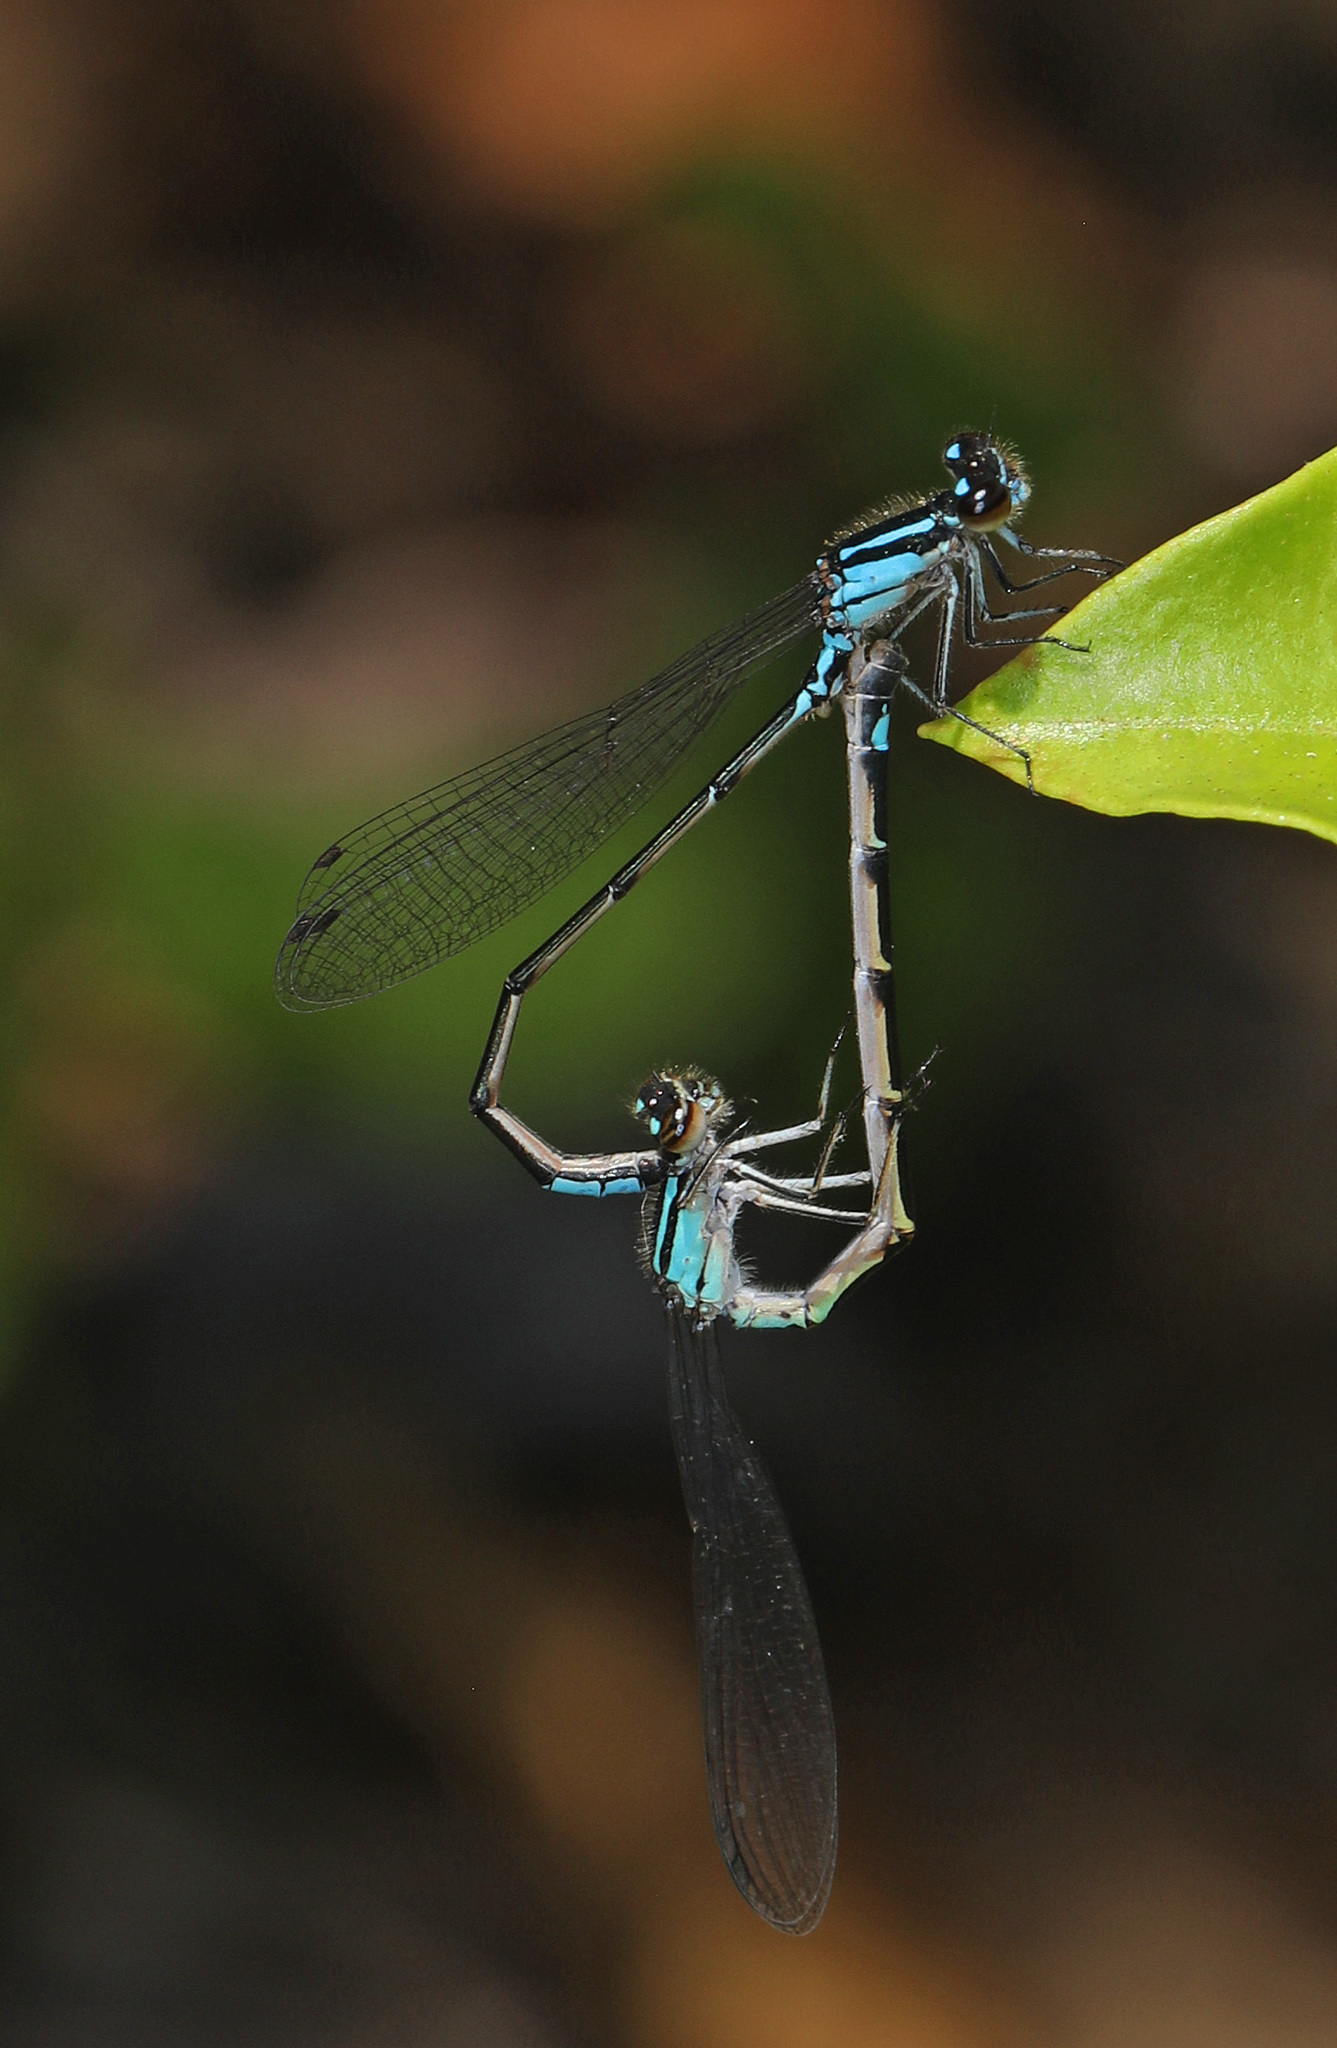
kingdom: Animalia
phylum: Arthropoda
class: Insecta
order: Odonata
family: Coenagrionidae
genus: Enallagma
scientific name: Enallagma geminatum
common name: Skimming bluet
